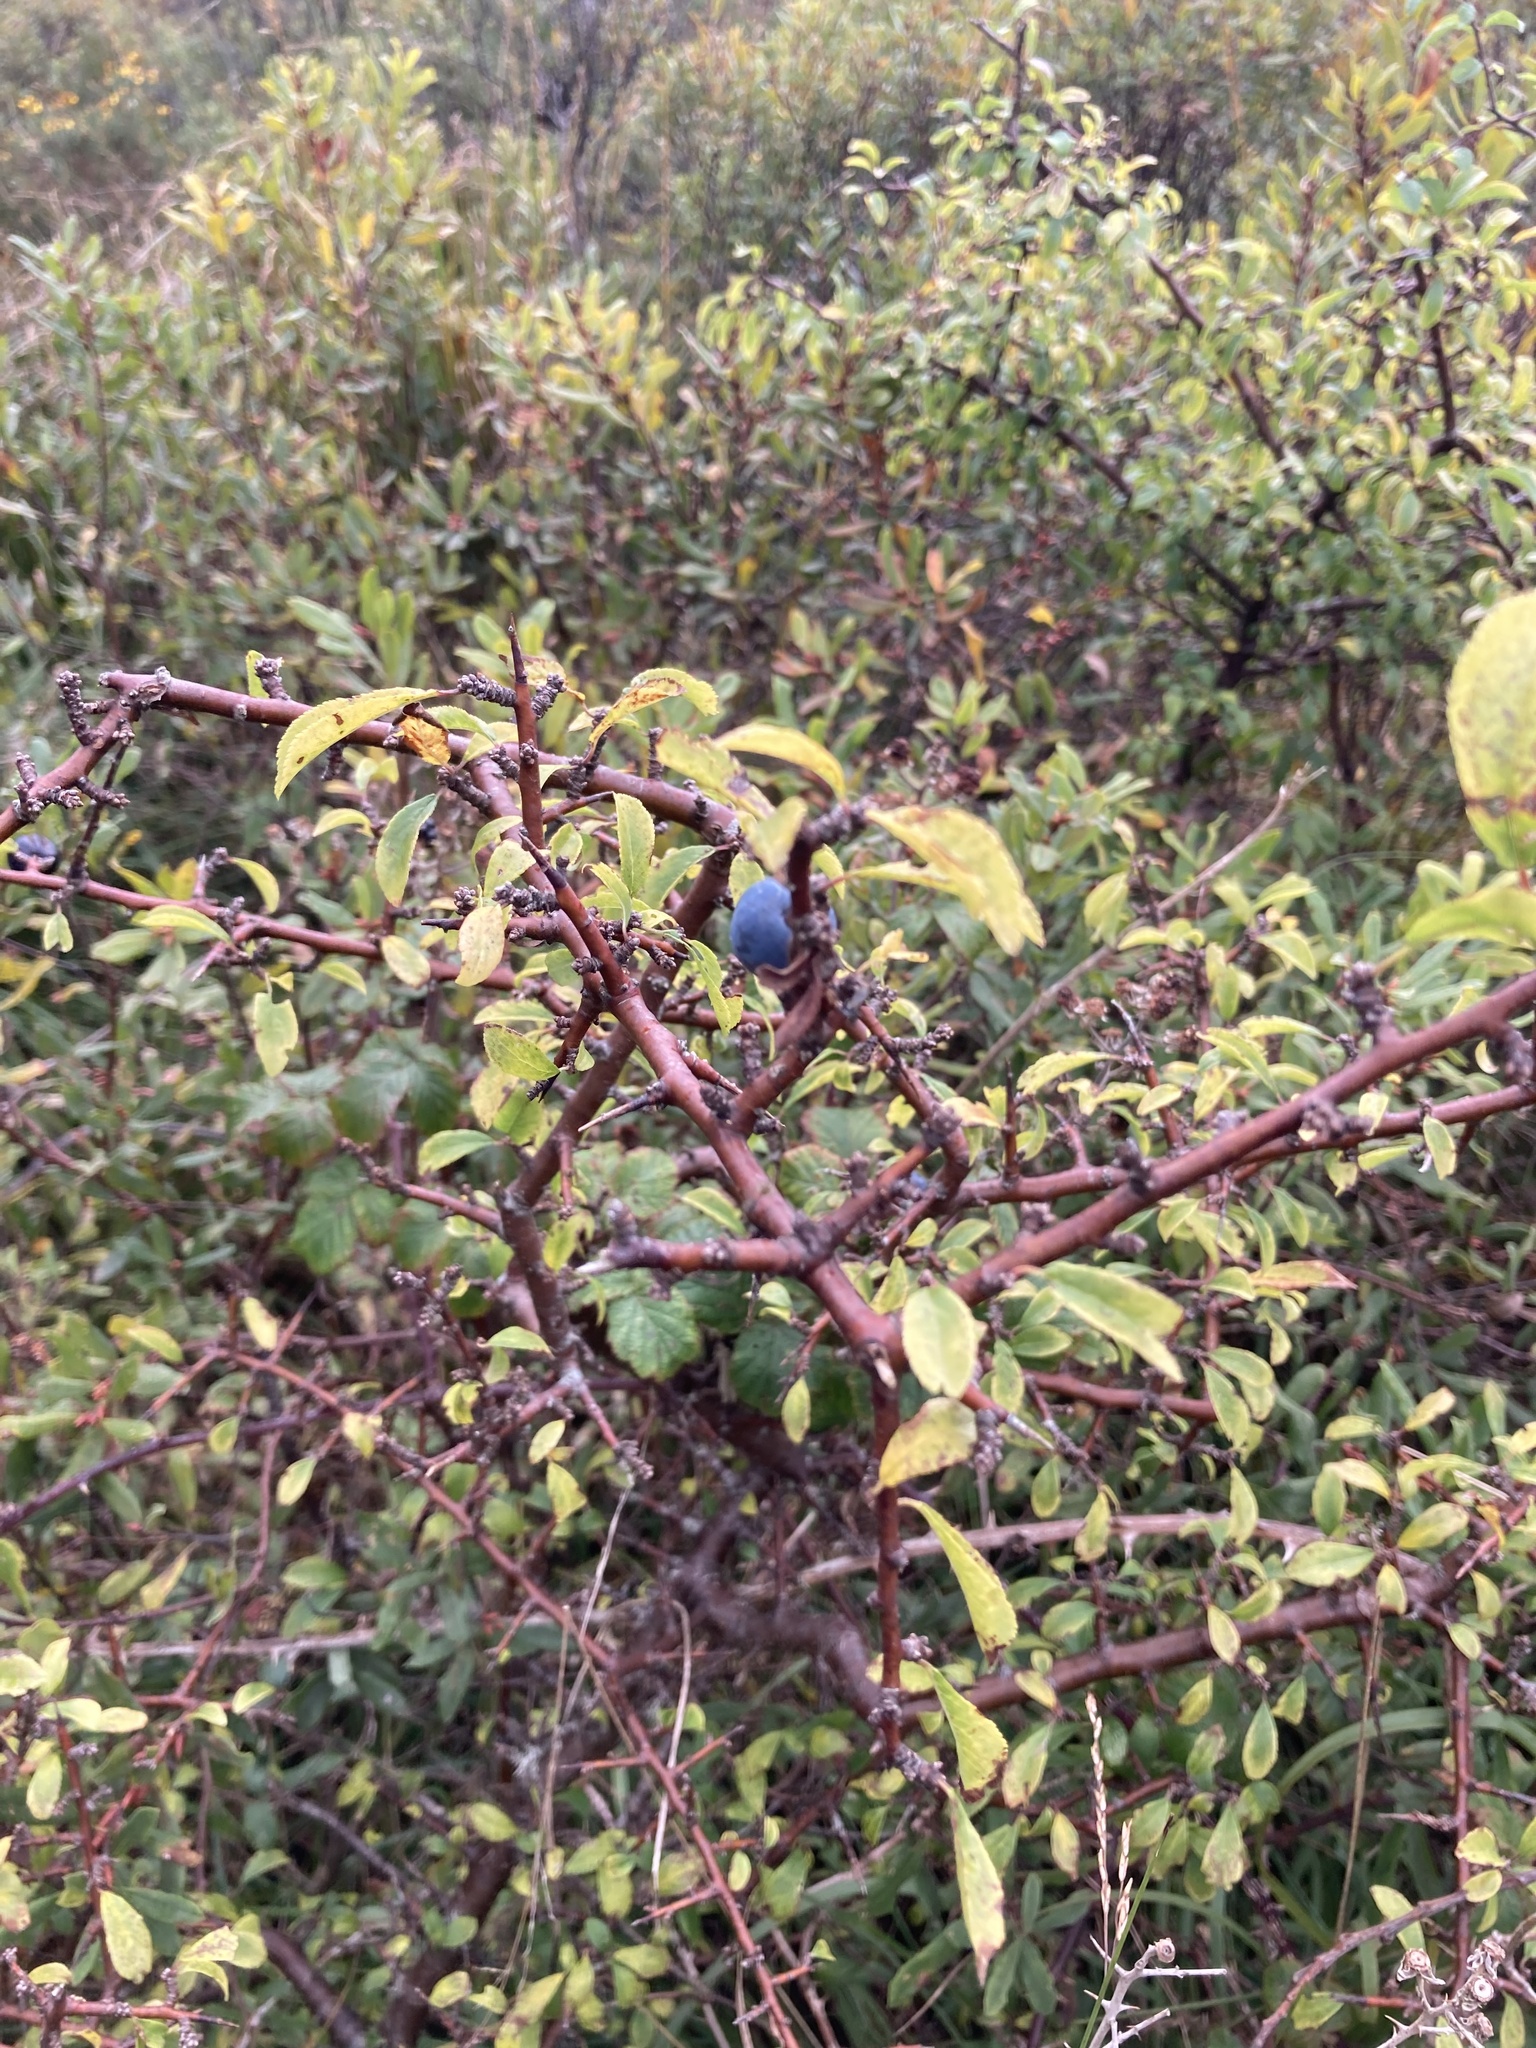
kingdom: Plantae
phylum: Tracheophyta
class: Magnoliopsida
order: Rosales
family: Rosaceae
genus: Prunus
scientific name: Prunus spinosa
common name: Blackthorn
